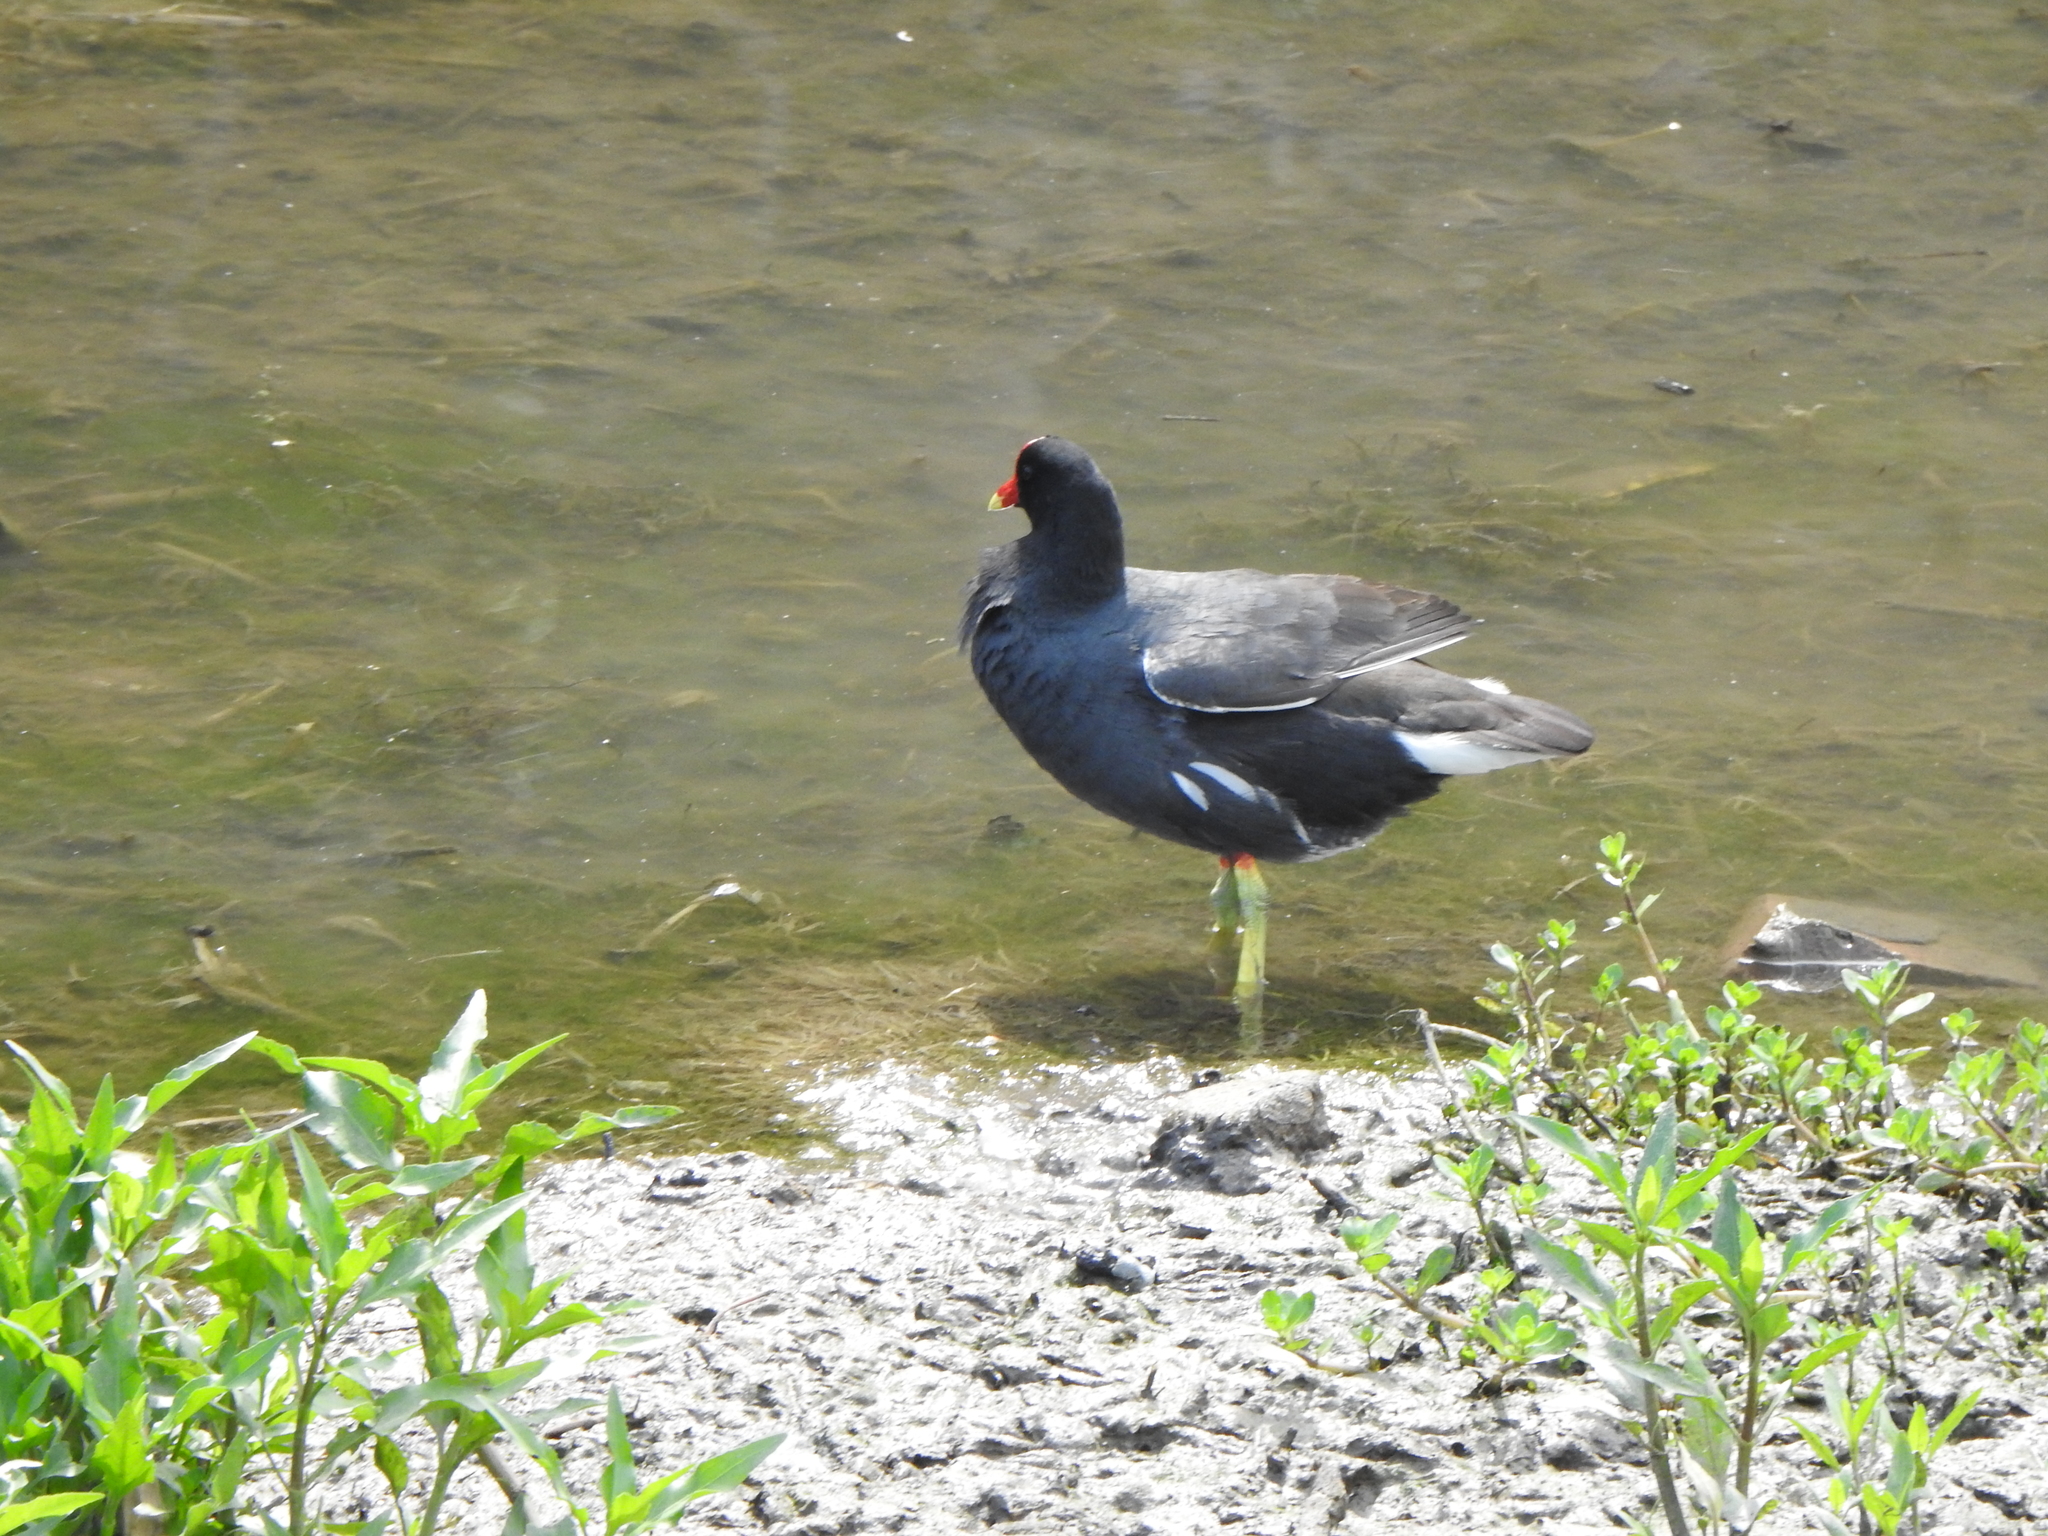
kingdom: Animalia
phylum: Chordata
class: Aves
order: Gruiformes
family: Rallidae
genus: Gallinula
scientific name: Gallinula chloropus
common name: Common moorhen
